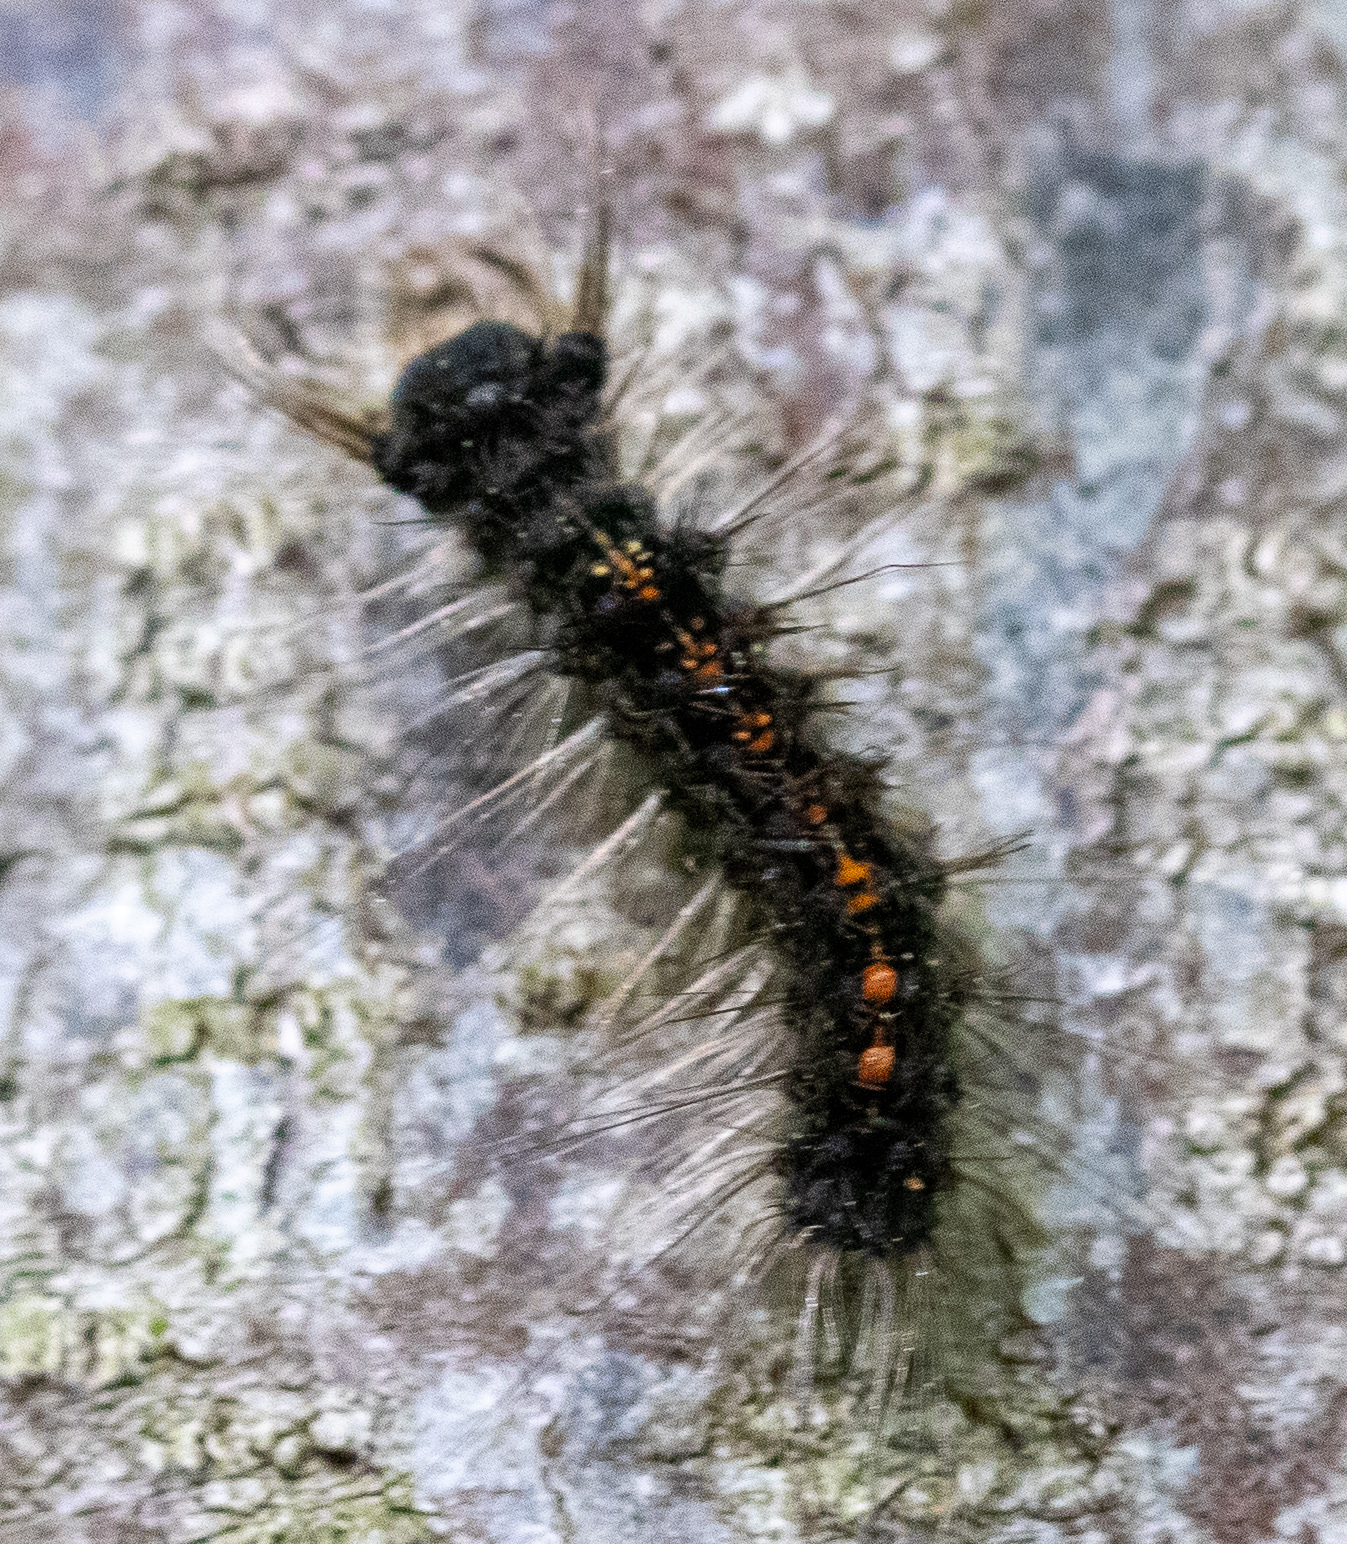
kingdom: Animalia
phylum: Arthropoda
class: Insecta
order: Lepidoptera
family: Erebidae
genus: Lymantria
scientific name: Lymantria dispar
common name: Gypsy moth
